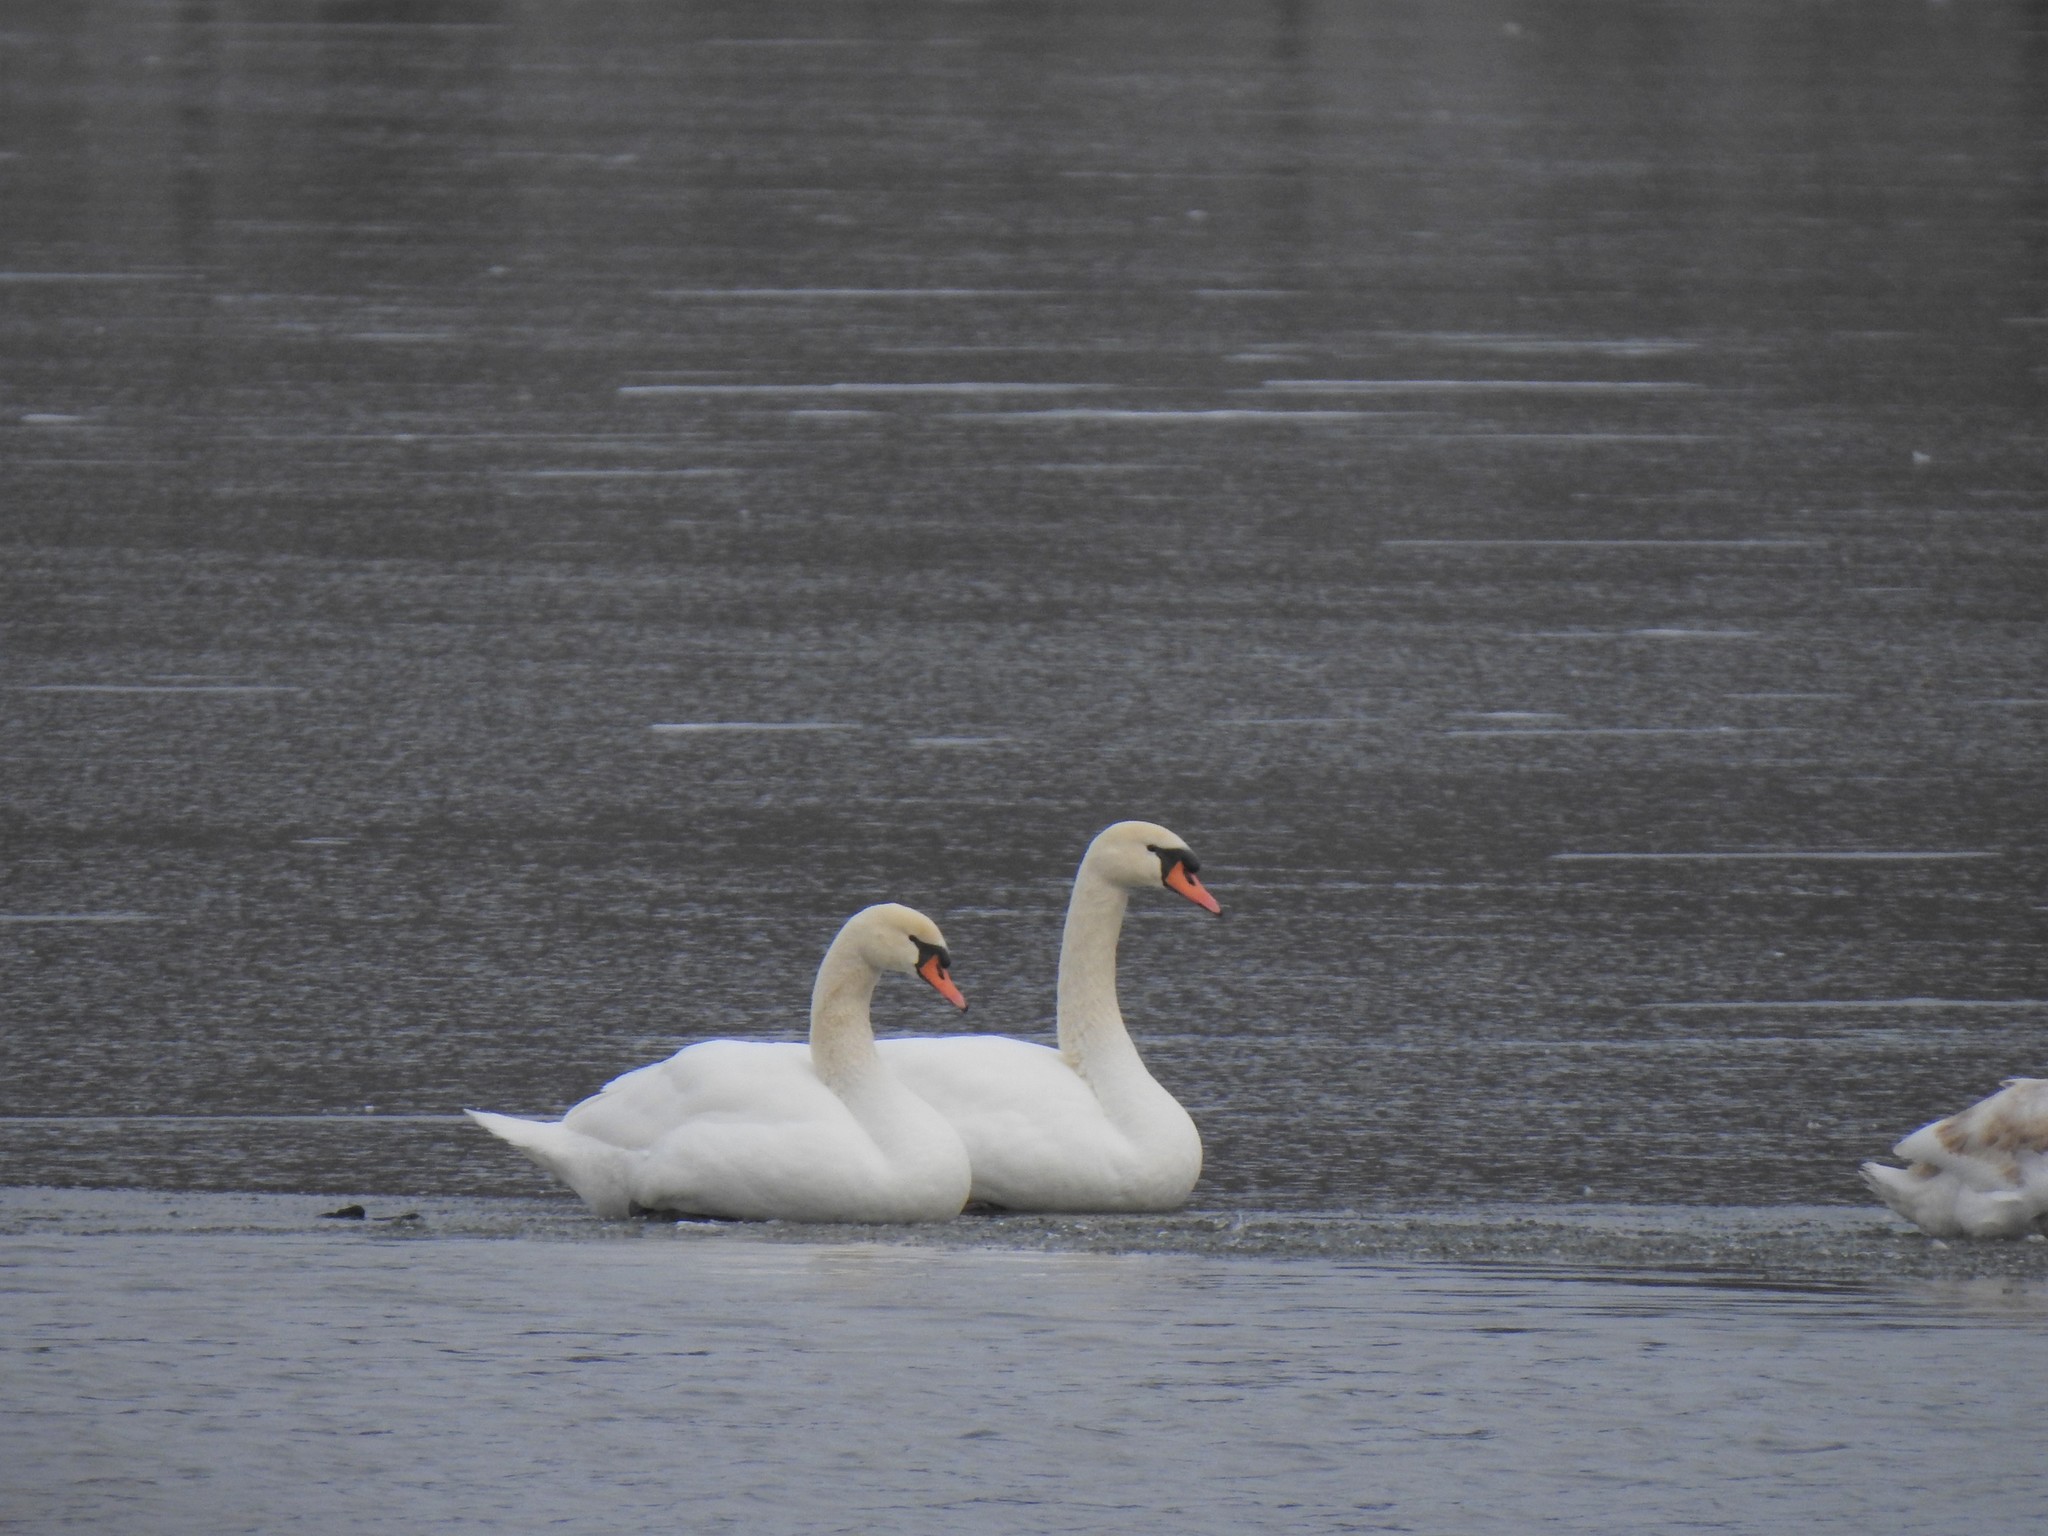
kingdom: Animalia
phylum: Chordata
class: Aves
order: Anseriformes
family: Anatidae
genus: Cygnus
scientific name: Cygnus olor
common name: Mute swan
